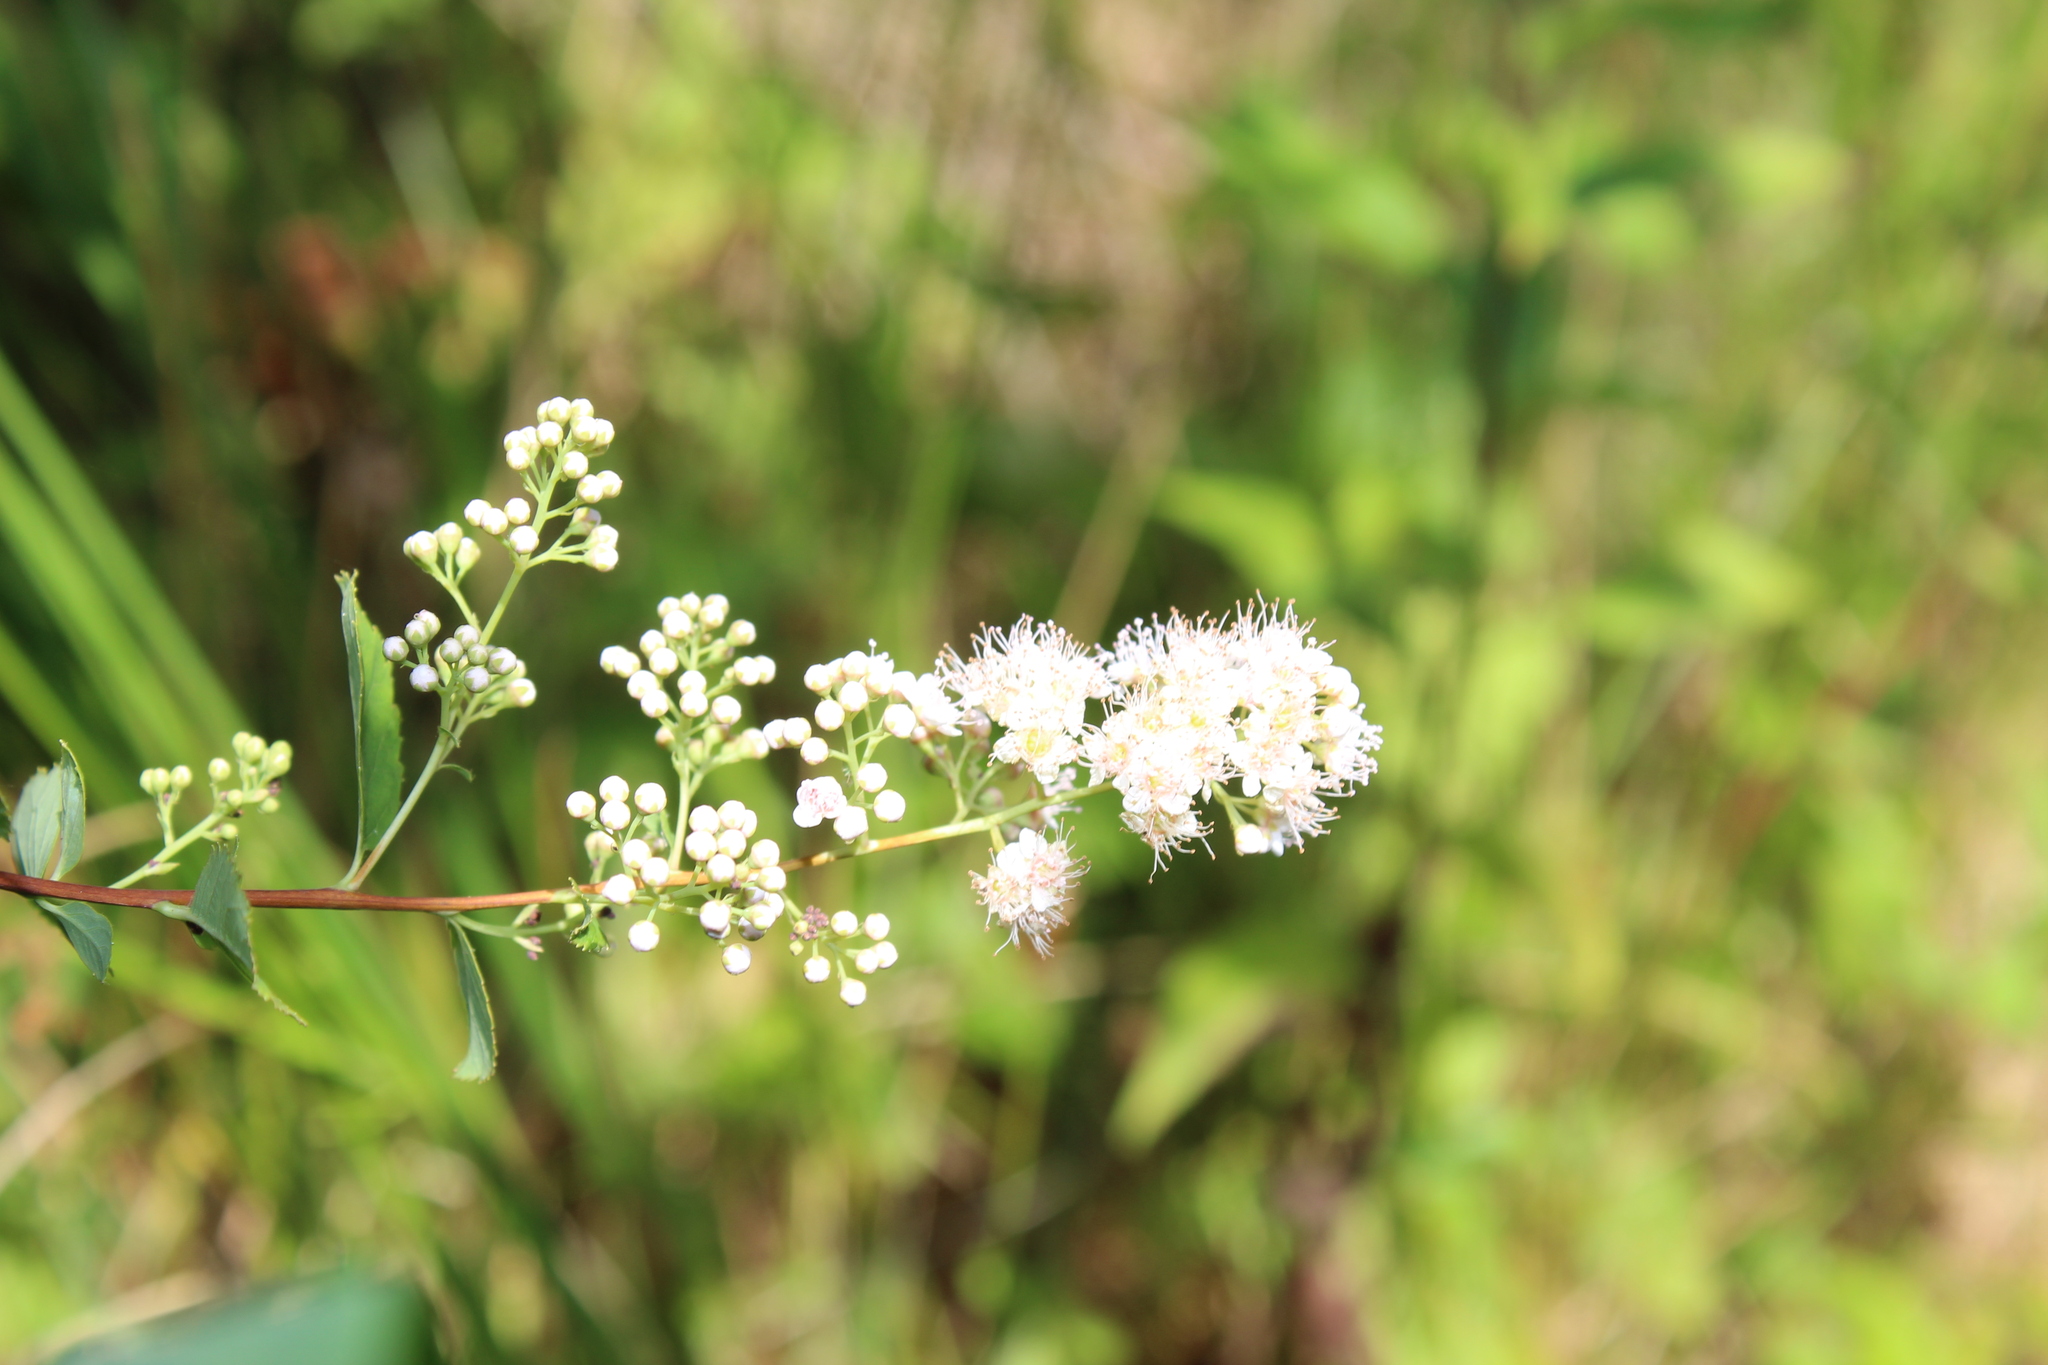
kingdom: Plantae
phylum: Tracheophyta
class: Magnoliopsida
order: Rosales
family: Rosaceae
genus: Spiraea
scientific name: Spiraea alba
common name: Pale bridewort
